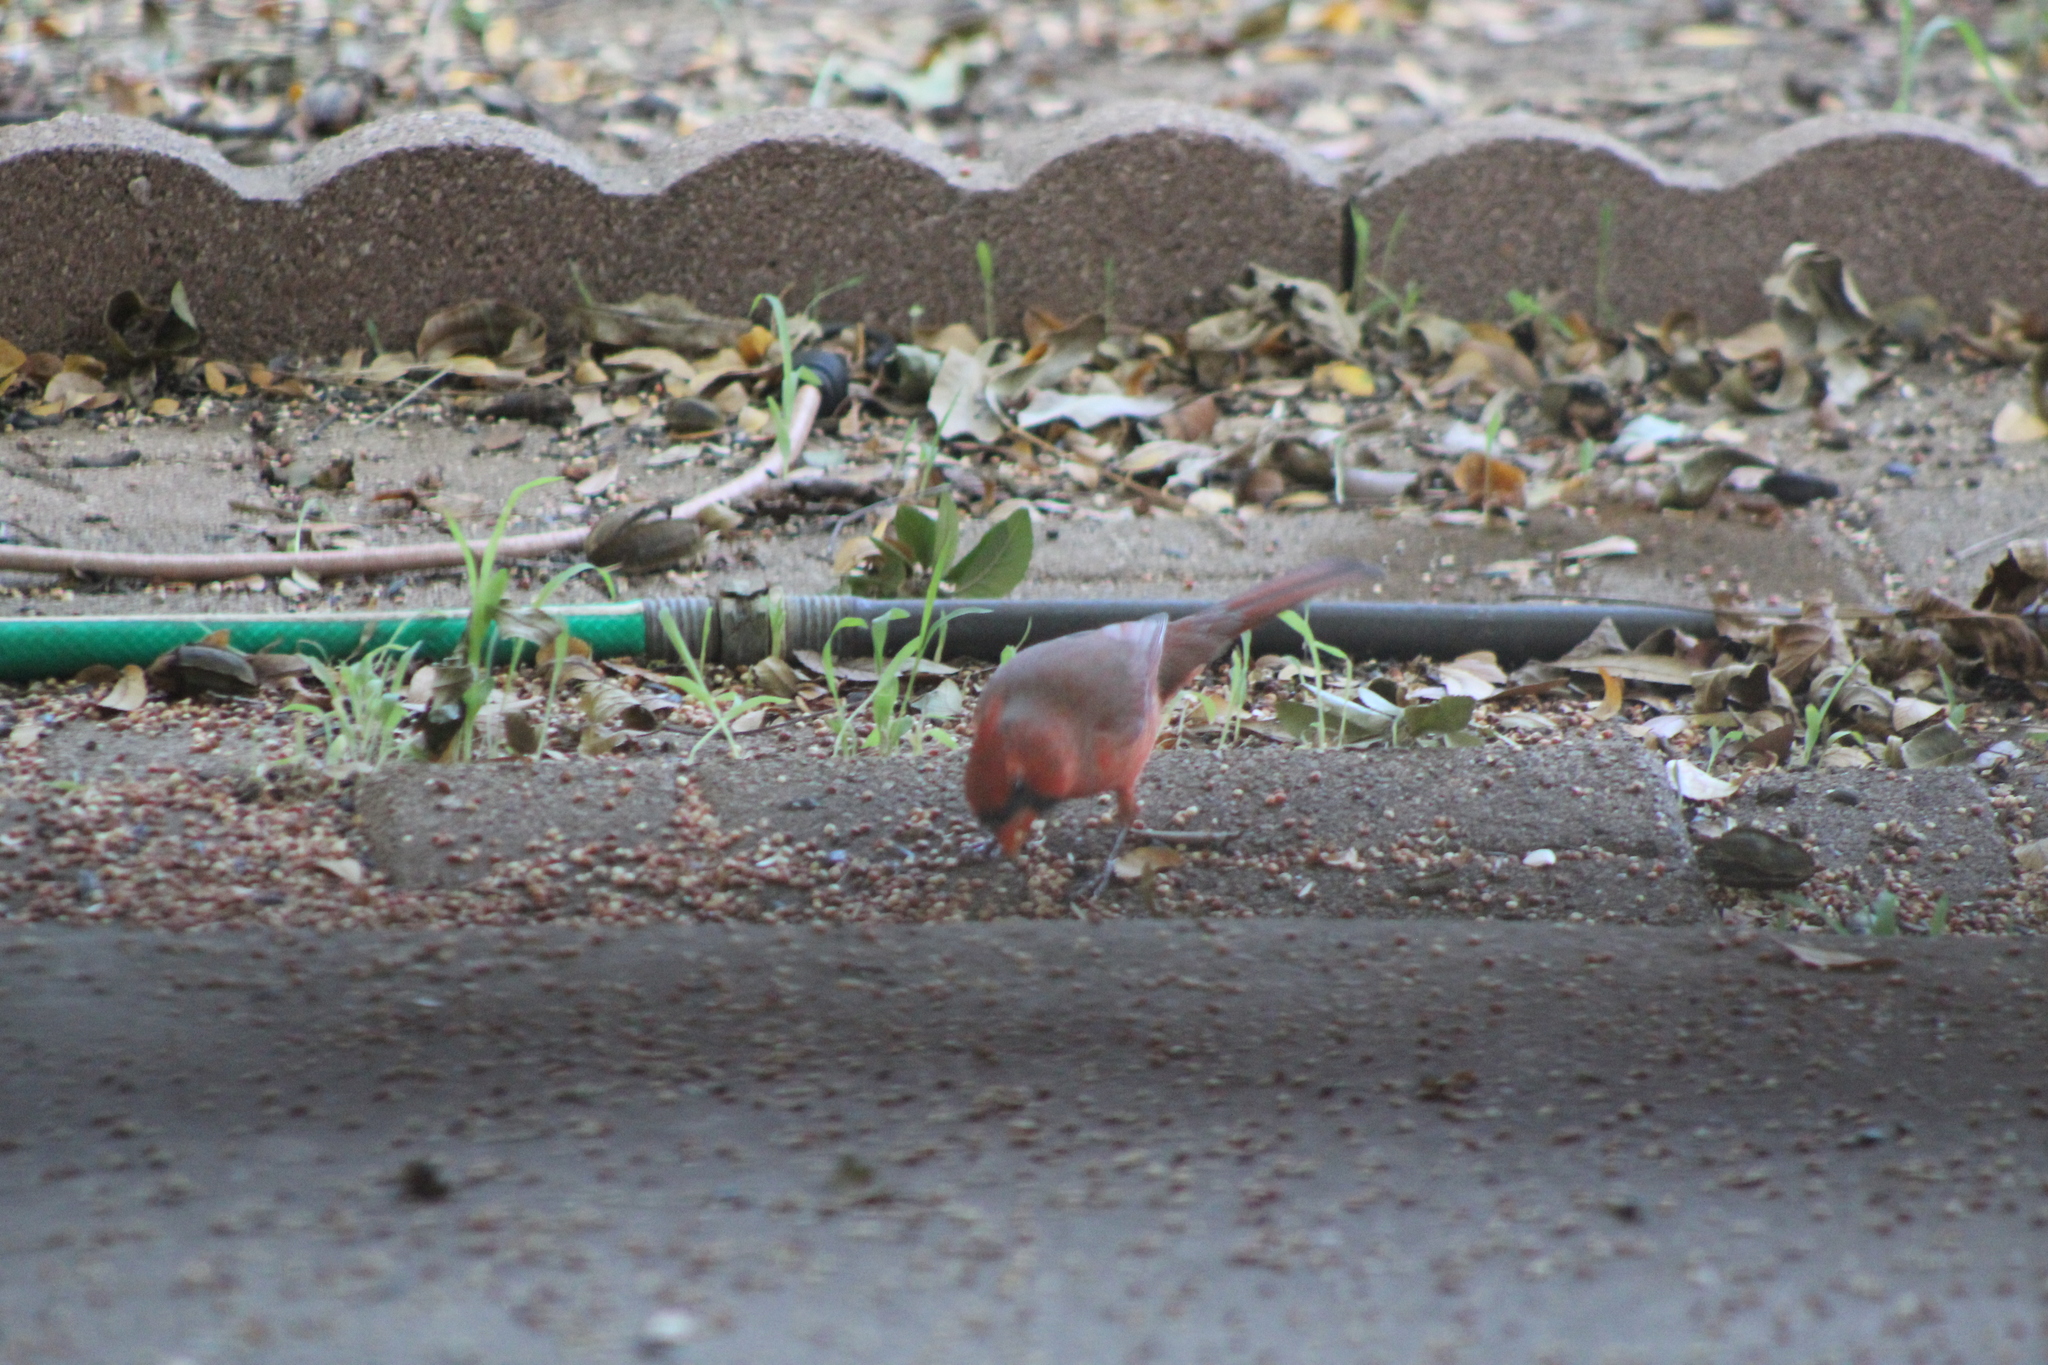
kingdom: Animalia
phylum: Chordata
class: Aves
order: Passeriformes
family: Cardinalidae
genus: Cardinalis
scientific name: Cardinalis cardinalis
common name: Northern cardinal
